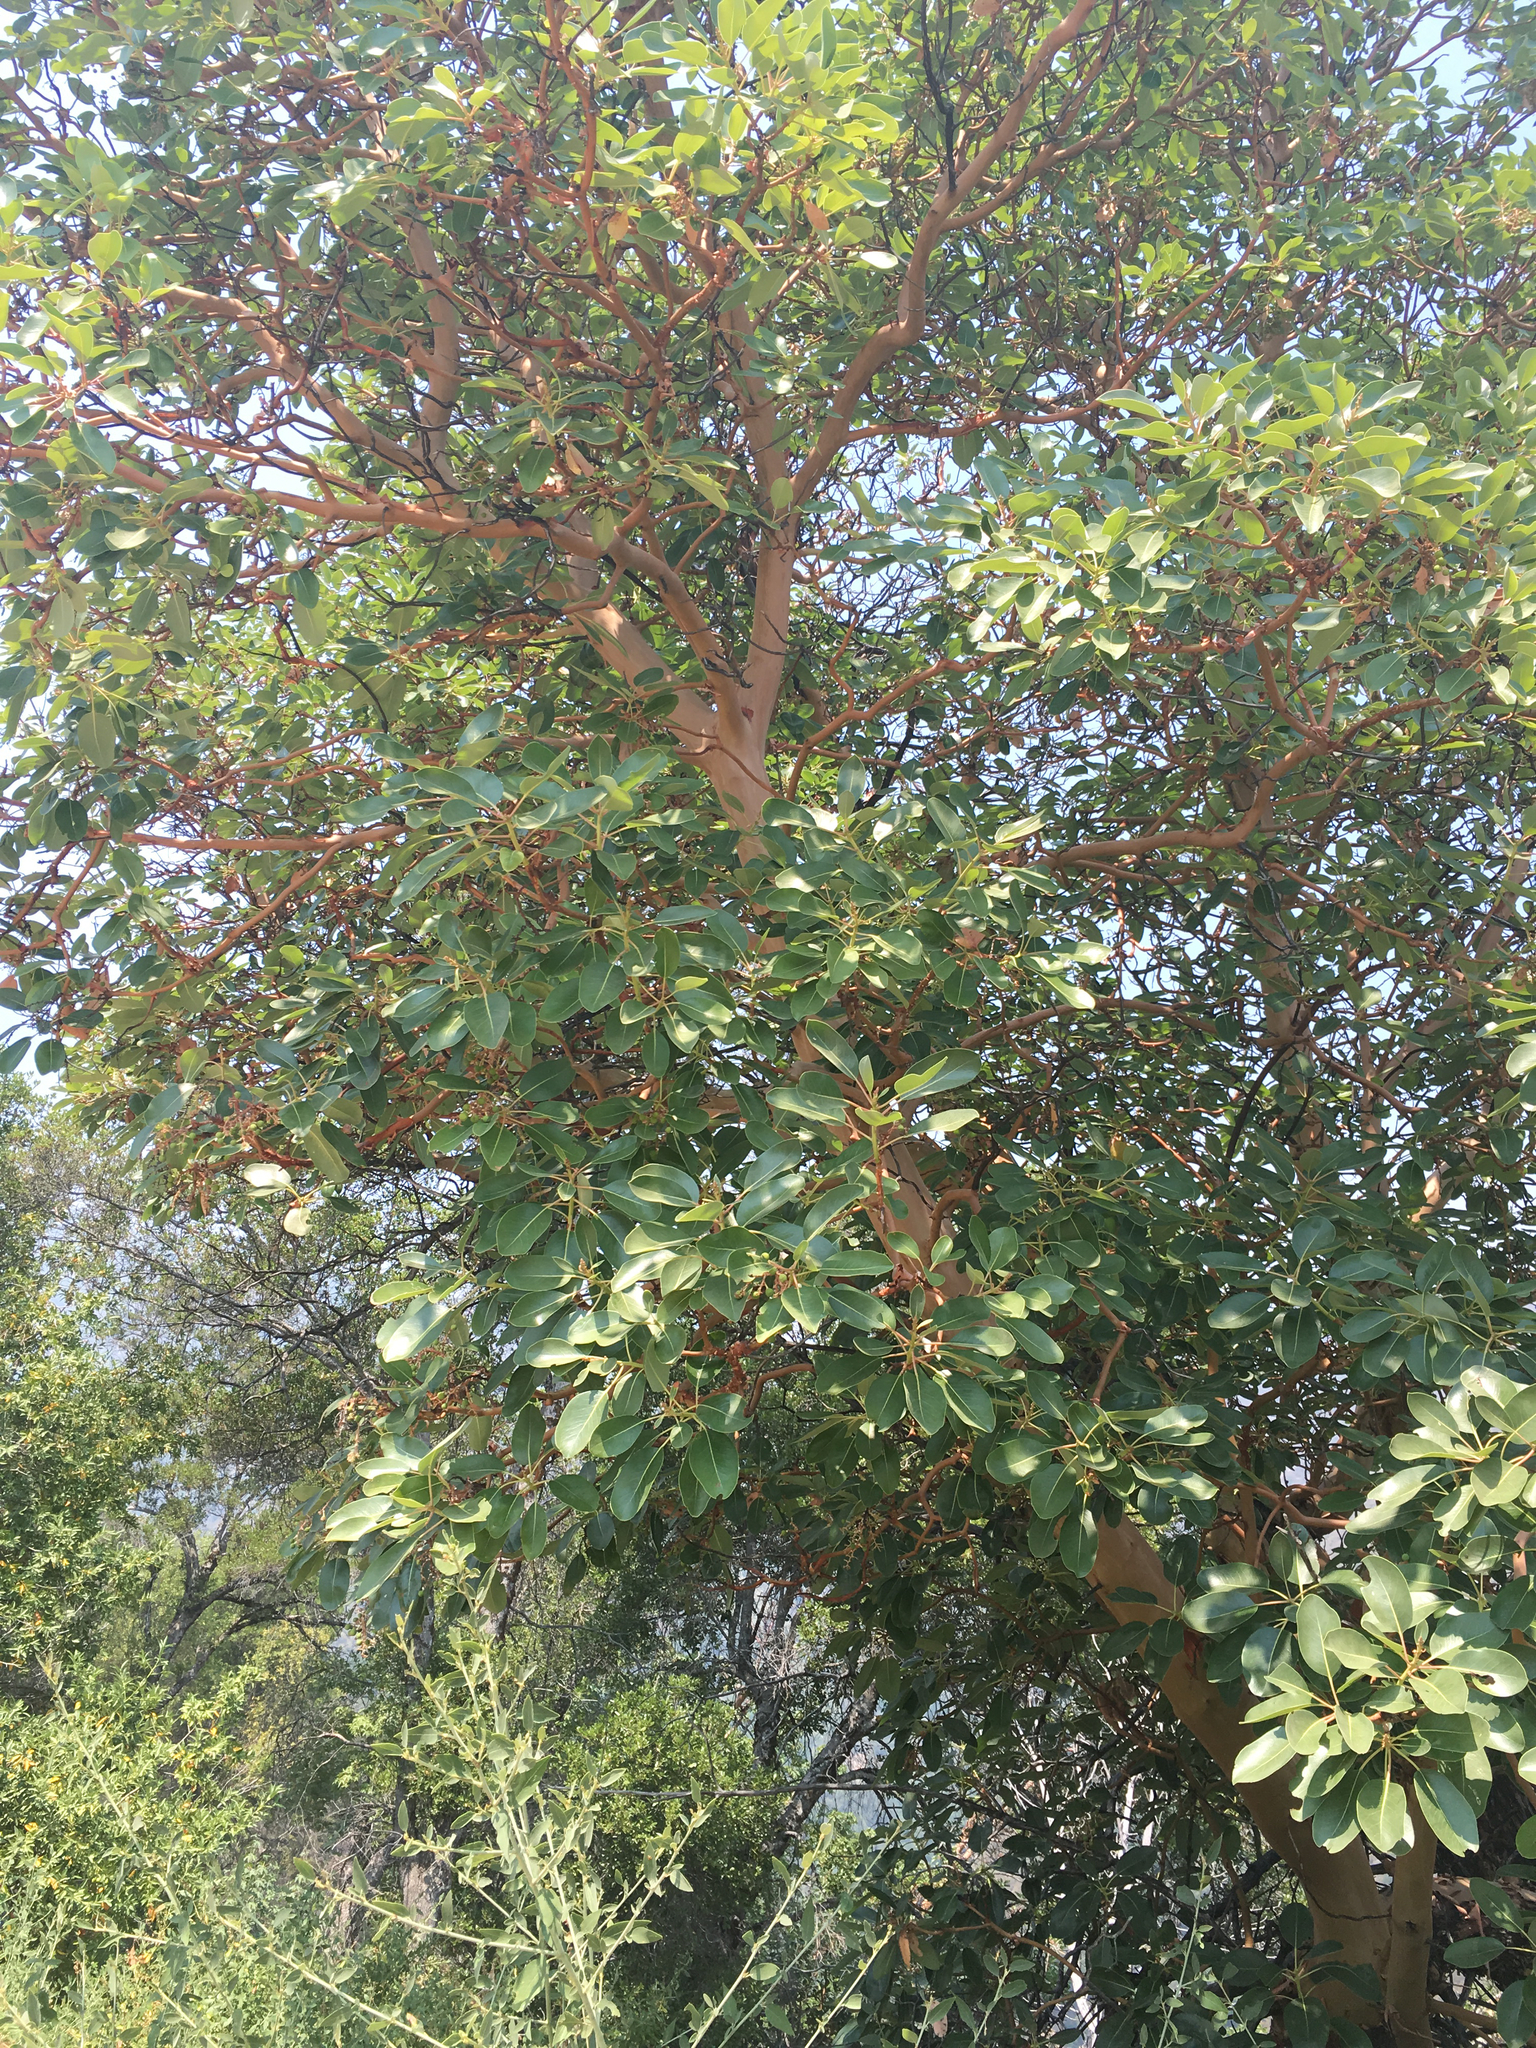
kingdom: Plantae
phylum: Tracheophyta
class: Magnoliopsida
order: Ericales
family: Ericaceae
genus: Arbutus
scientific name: Arbutus menziesii
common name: Pacific madrone
